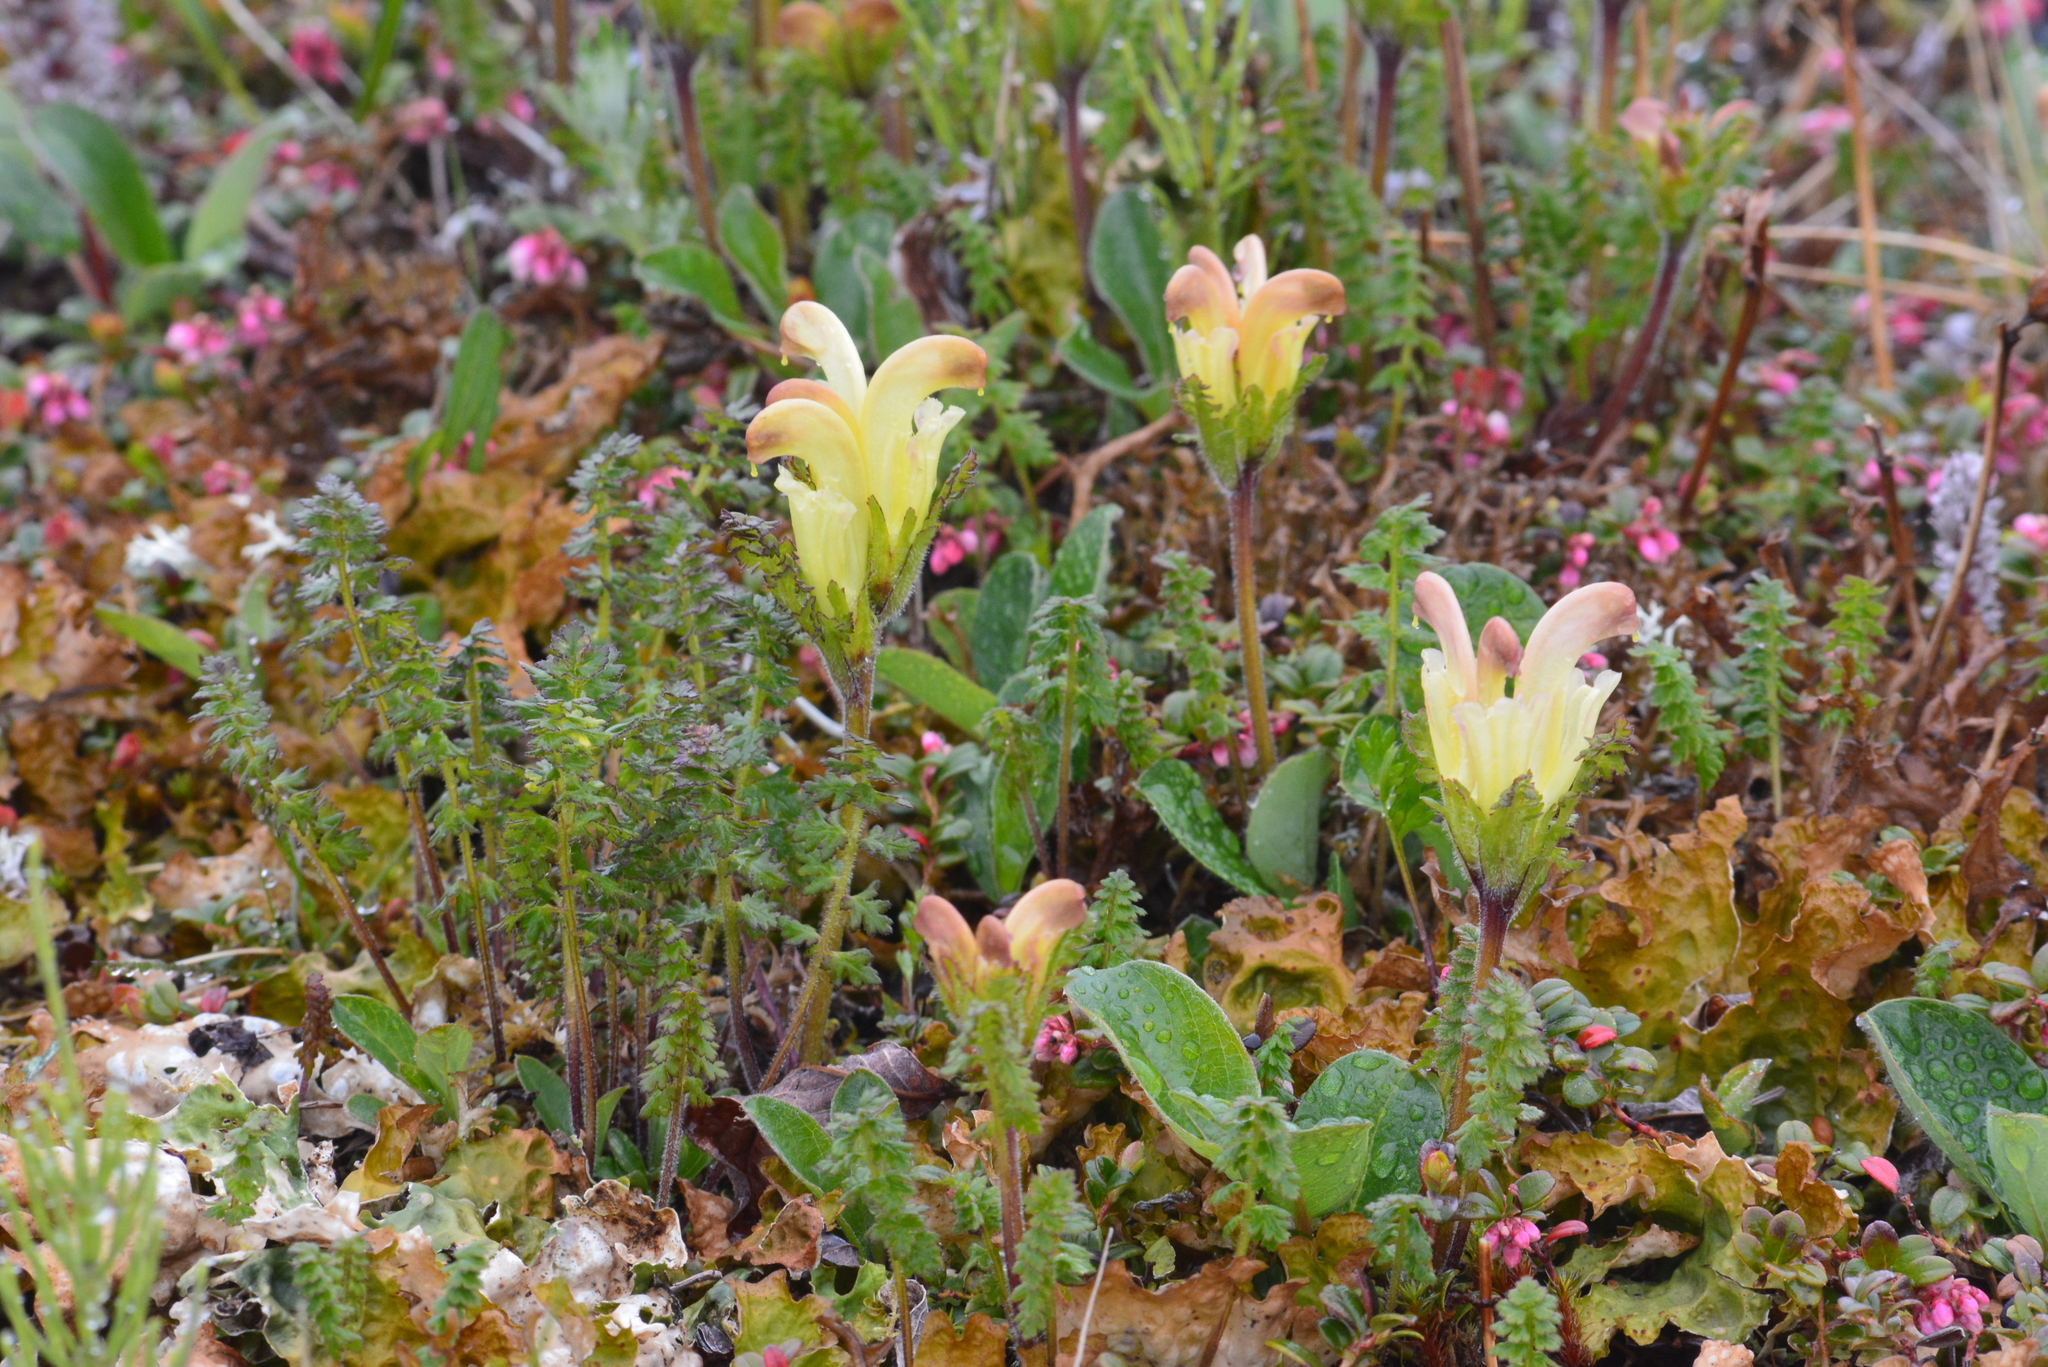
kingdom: Plantae
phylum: Tracheophyta
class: Magnoliopsida
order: Lamiales
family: Orobanchaceae
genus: Pedicularis
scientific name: Pedicularis capitata
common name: Capitate lousewort
